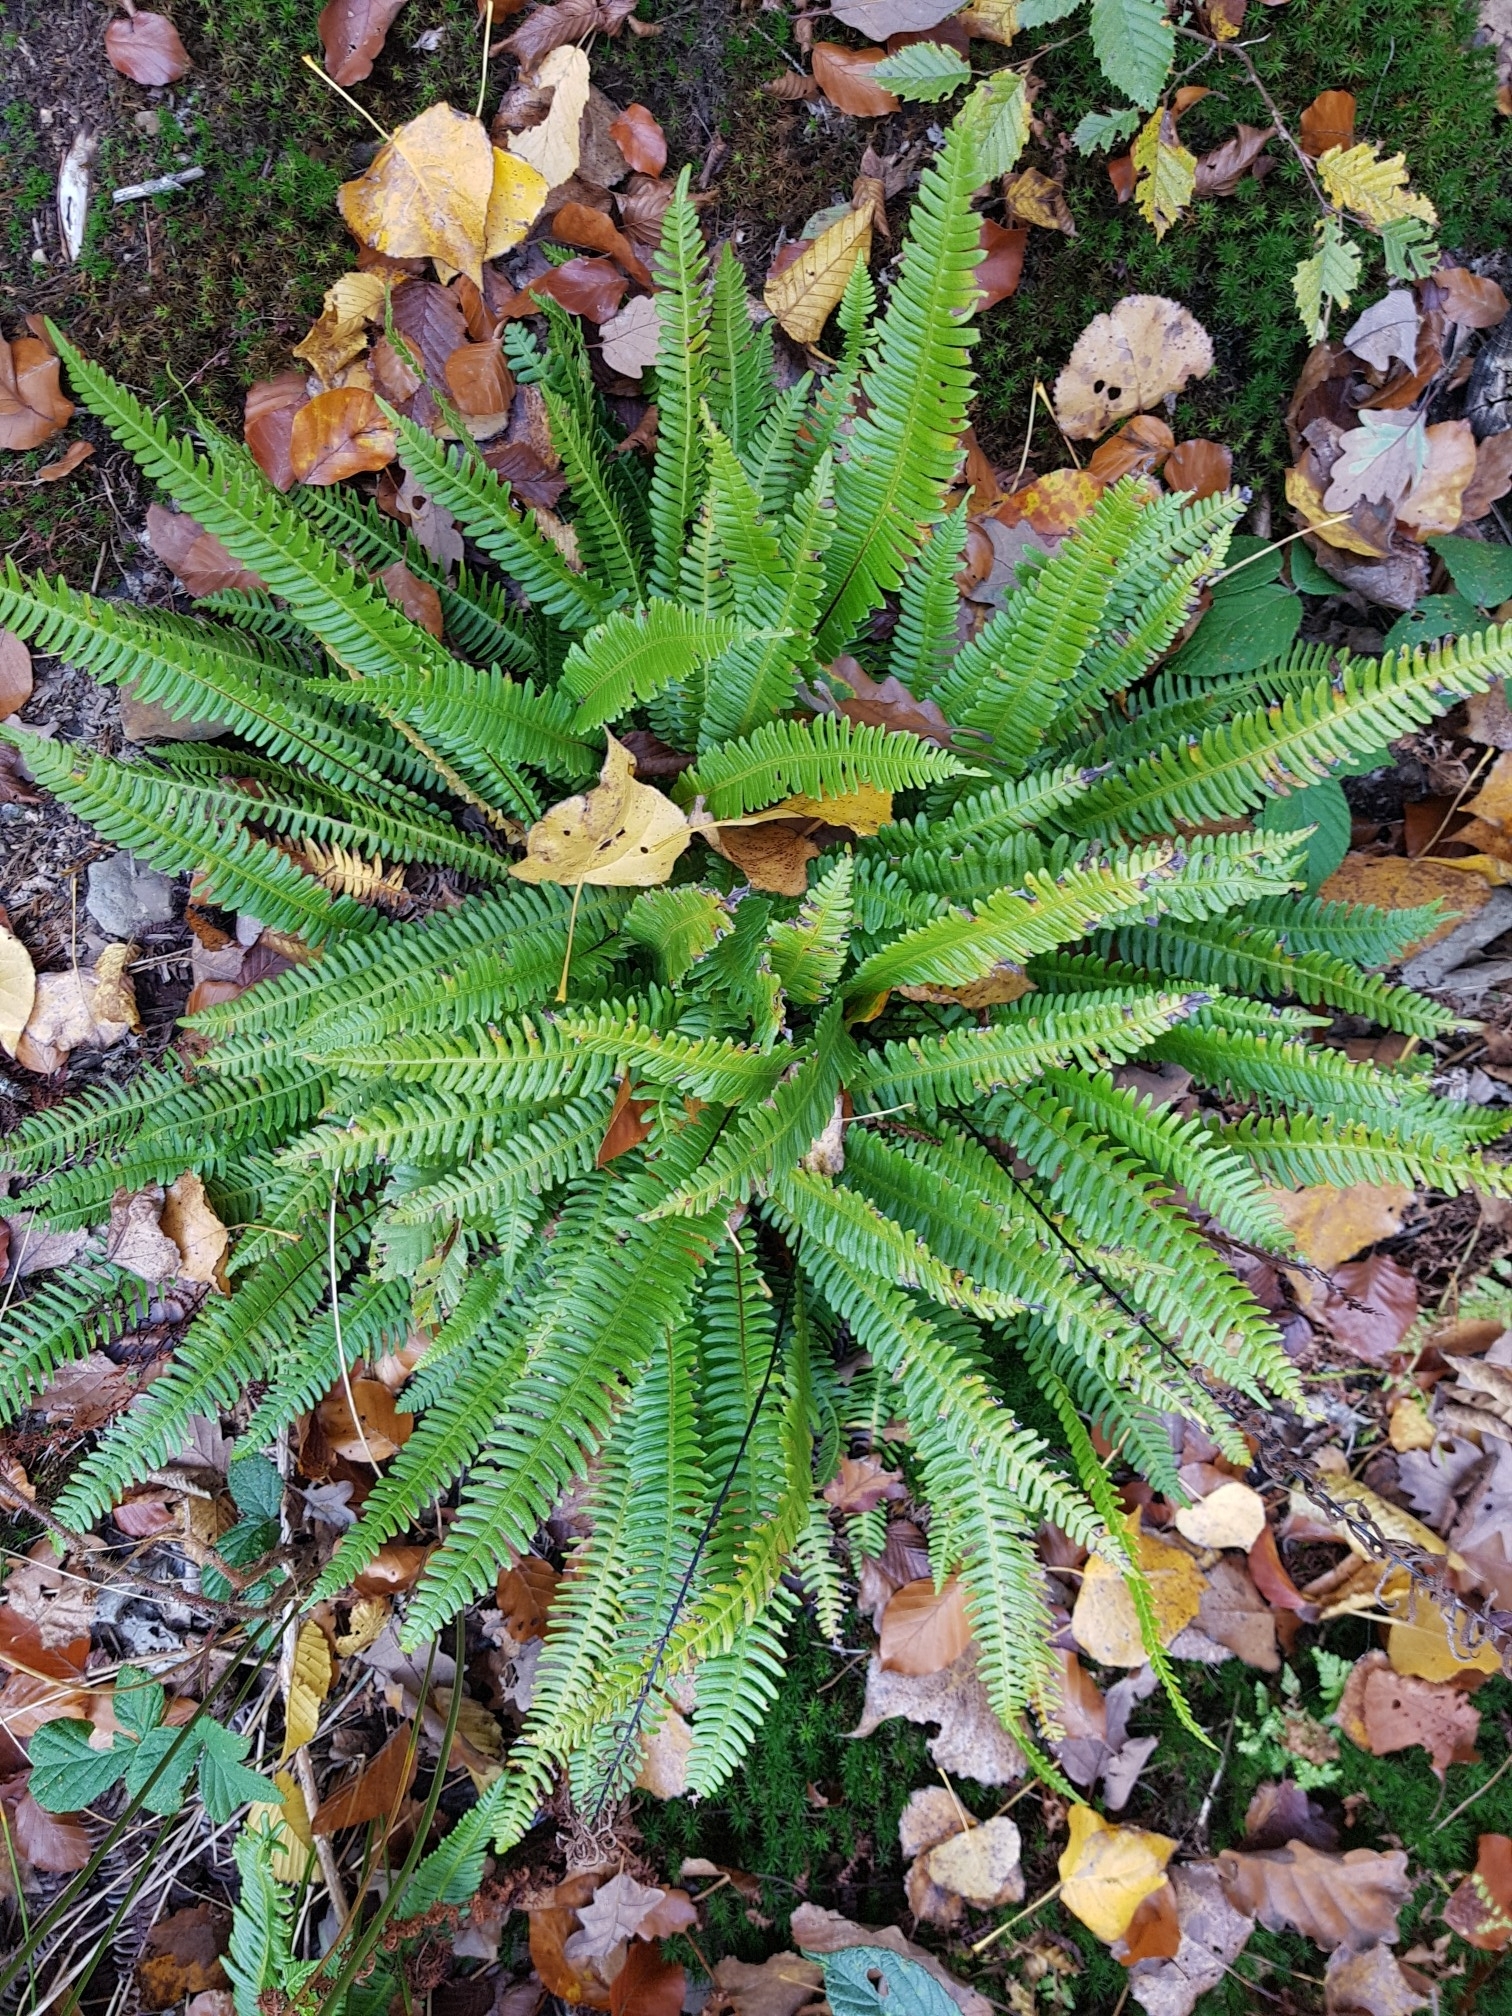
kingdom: Plantae
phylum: Tracheophyta
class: Polypodiopsida
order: Polypodiales
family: Blechnaceae
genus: Struthiopteris
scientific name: Struthiopteris spicant
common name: Deer fern
